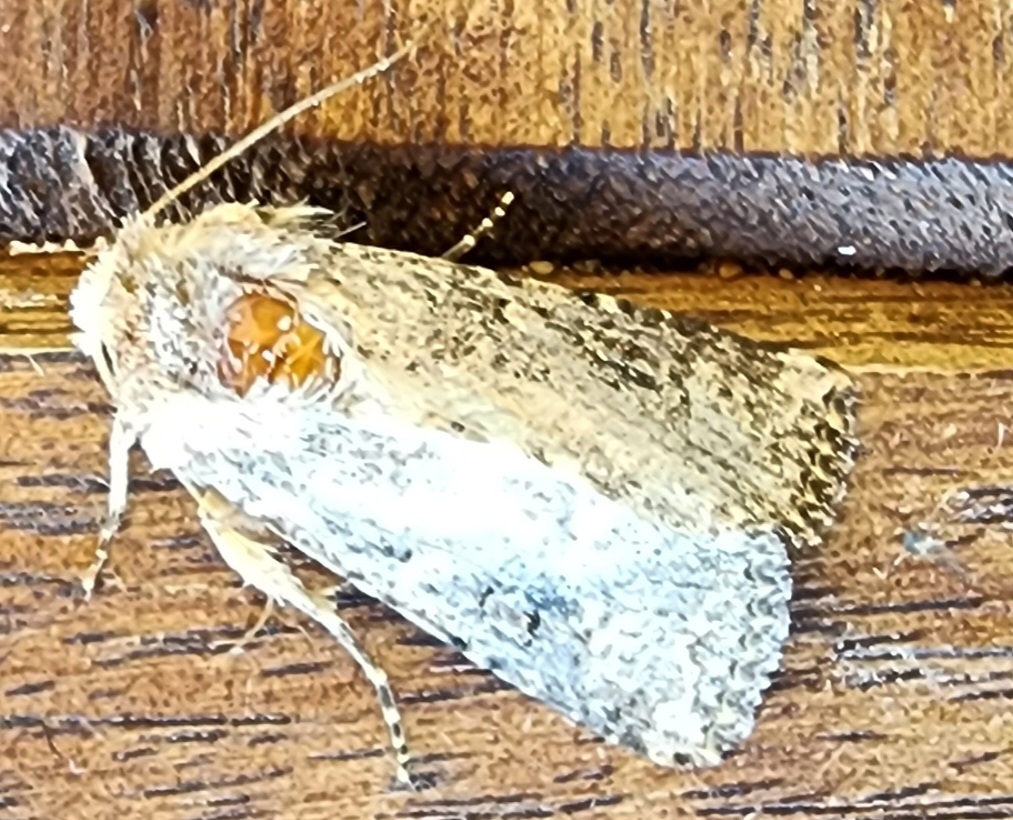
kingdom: Animalia
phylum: Arthropoda
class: Insecta
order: Lepidoptera
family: Noctuidae
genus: Mythimna
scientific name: Mythimna languida
